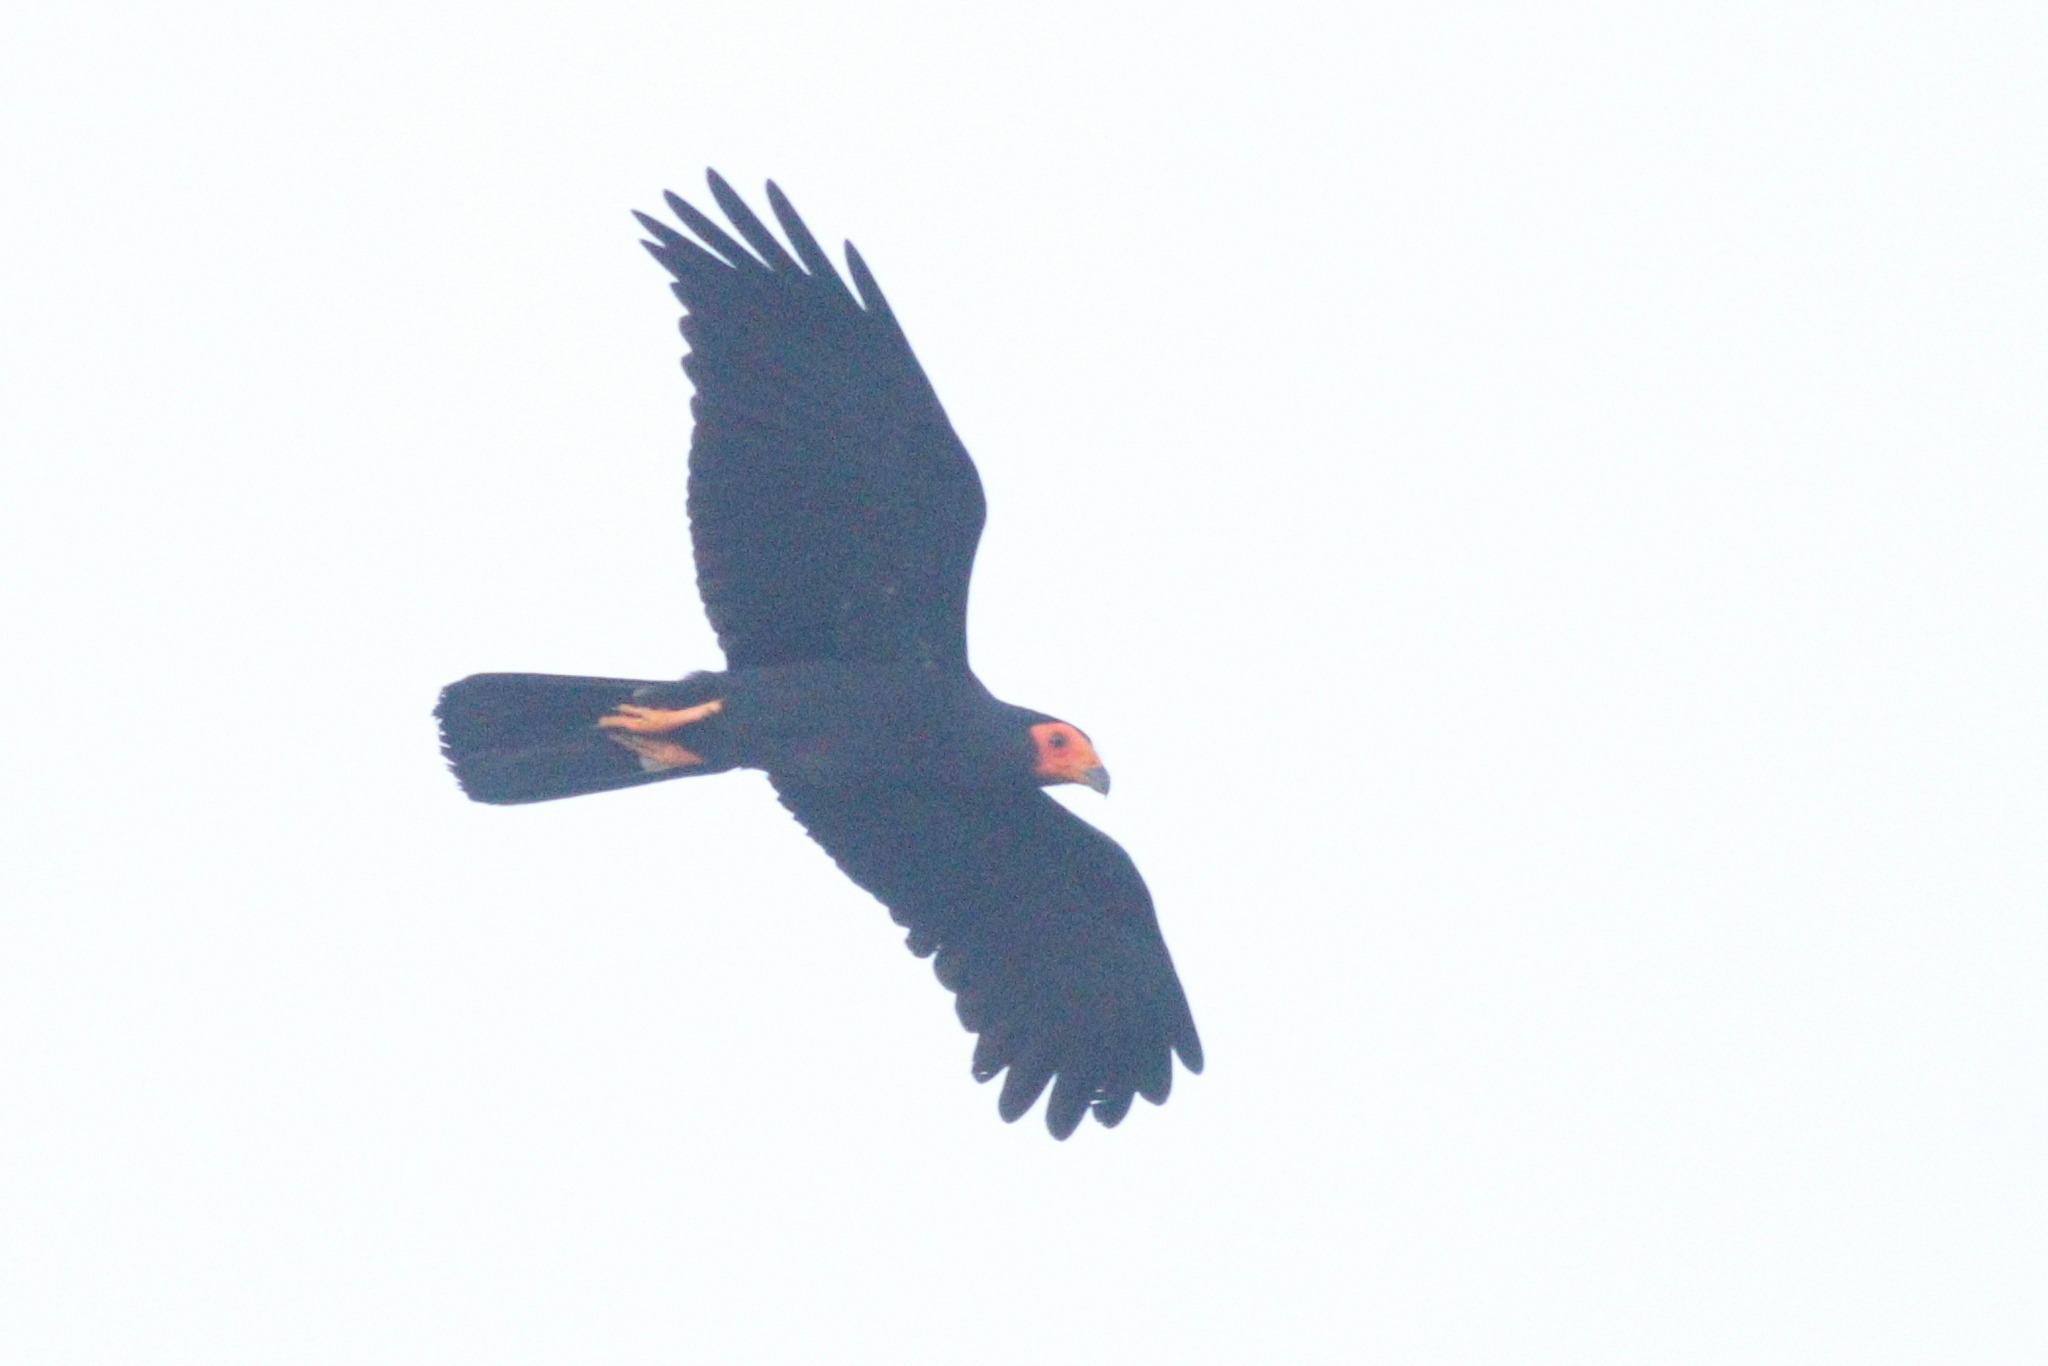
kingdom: Animalia
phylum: Chordata
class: Aves
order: Falconiformes
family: Falconidae
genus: Daptrius
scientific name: Daptrius ater
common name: Black caracara
